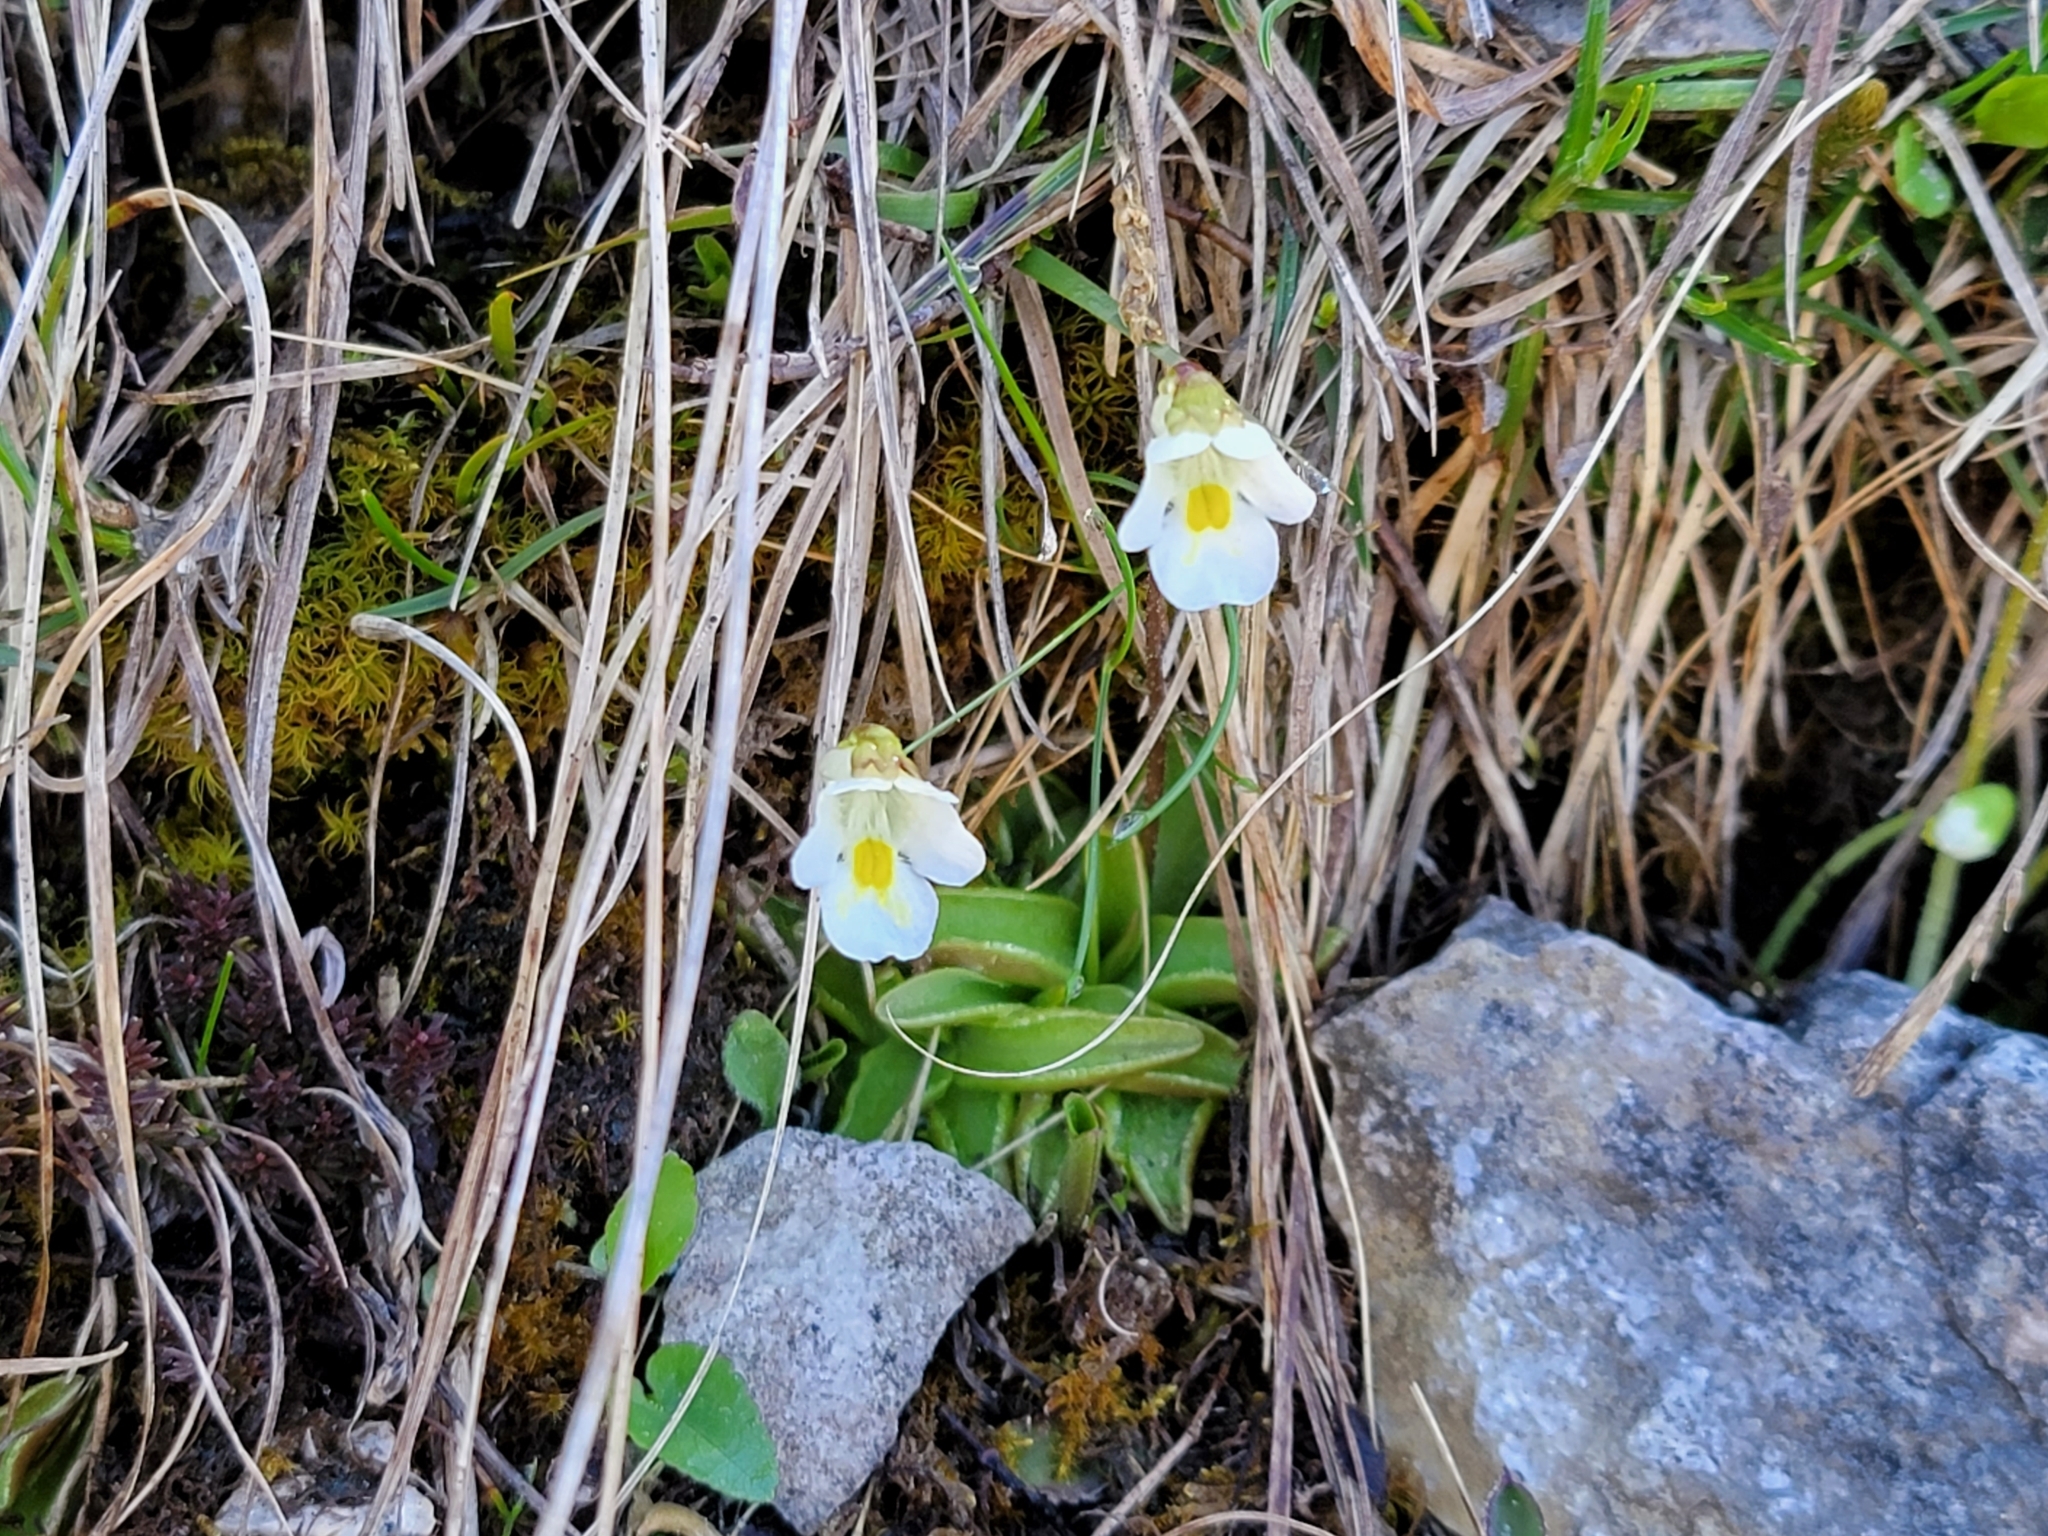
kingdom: Plantae
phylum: Tracheophyta
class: Magnoliopsida
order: Lamiales
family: Lentibulariaceae
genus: Pinguicula
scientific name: Pinguicula alpina
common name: Alpine butterwort
